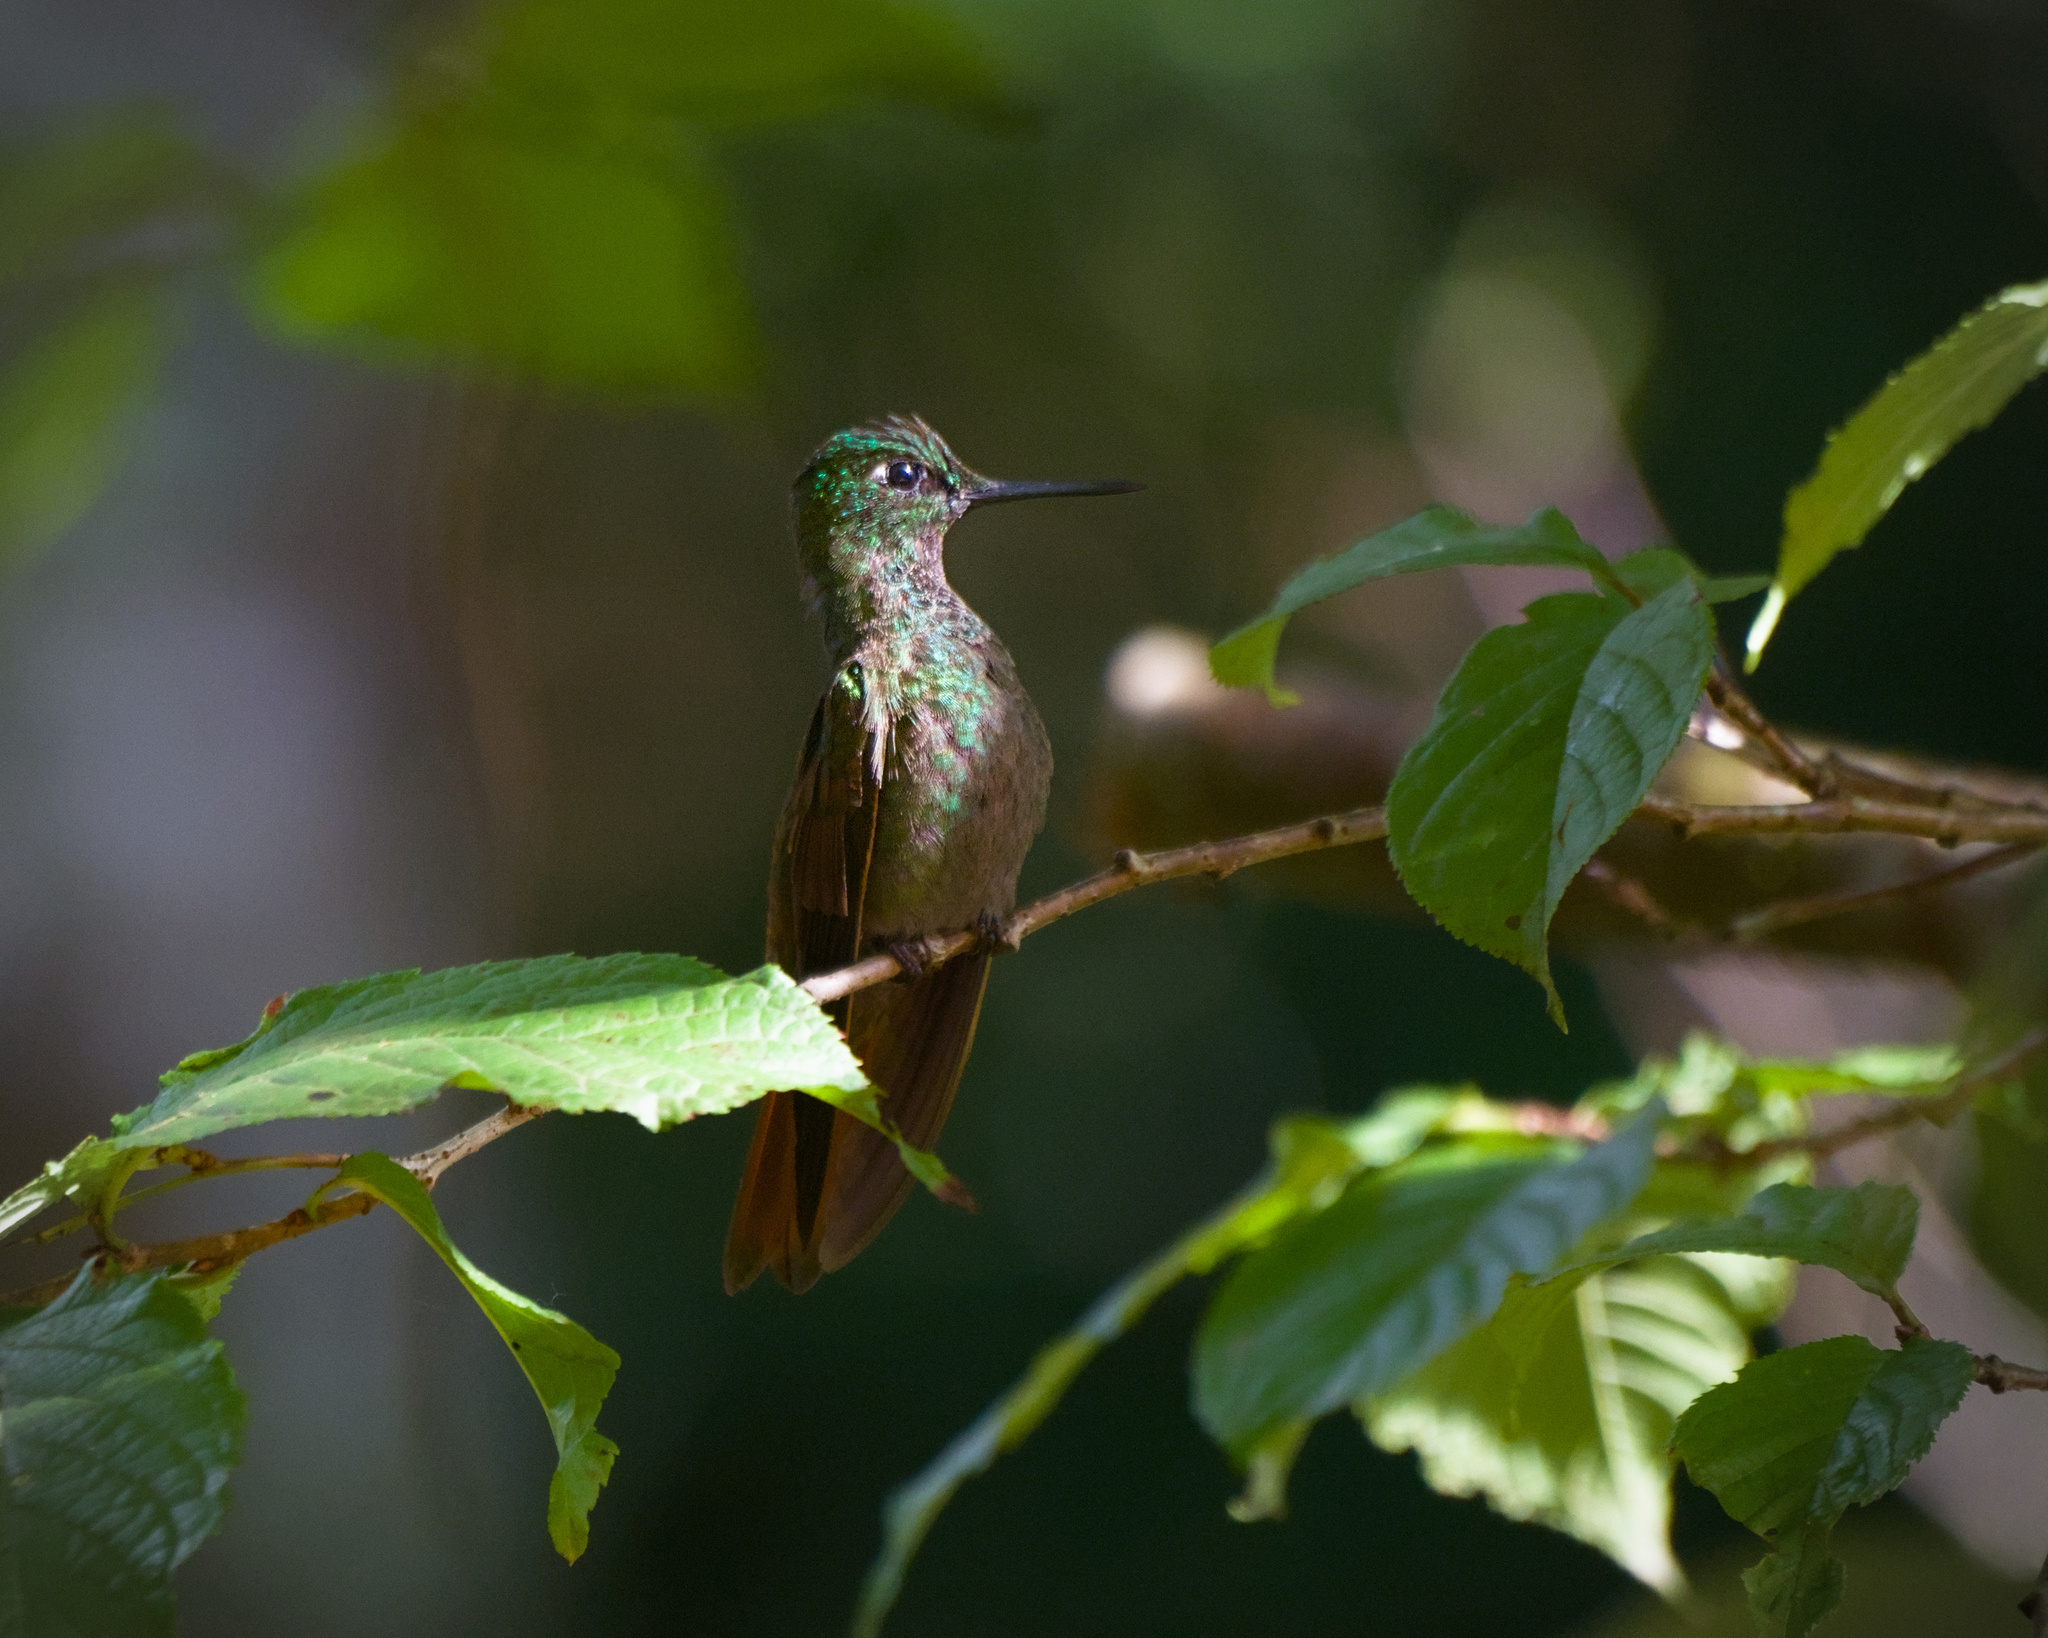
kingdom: Animalia
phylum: Chordata
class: Aves
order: Apodiformes
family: Trochilidae
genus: Clytolaema
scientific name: Clytolaema rubricauda
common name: Brazilian ruby
